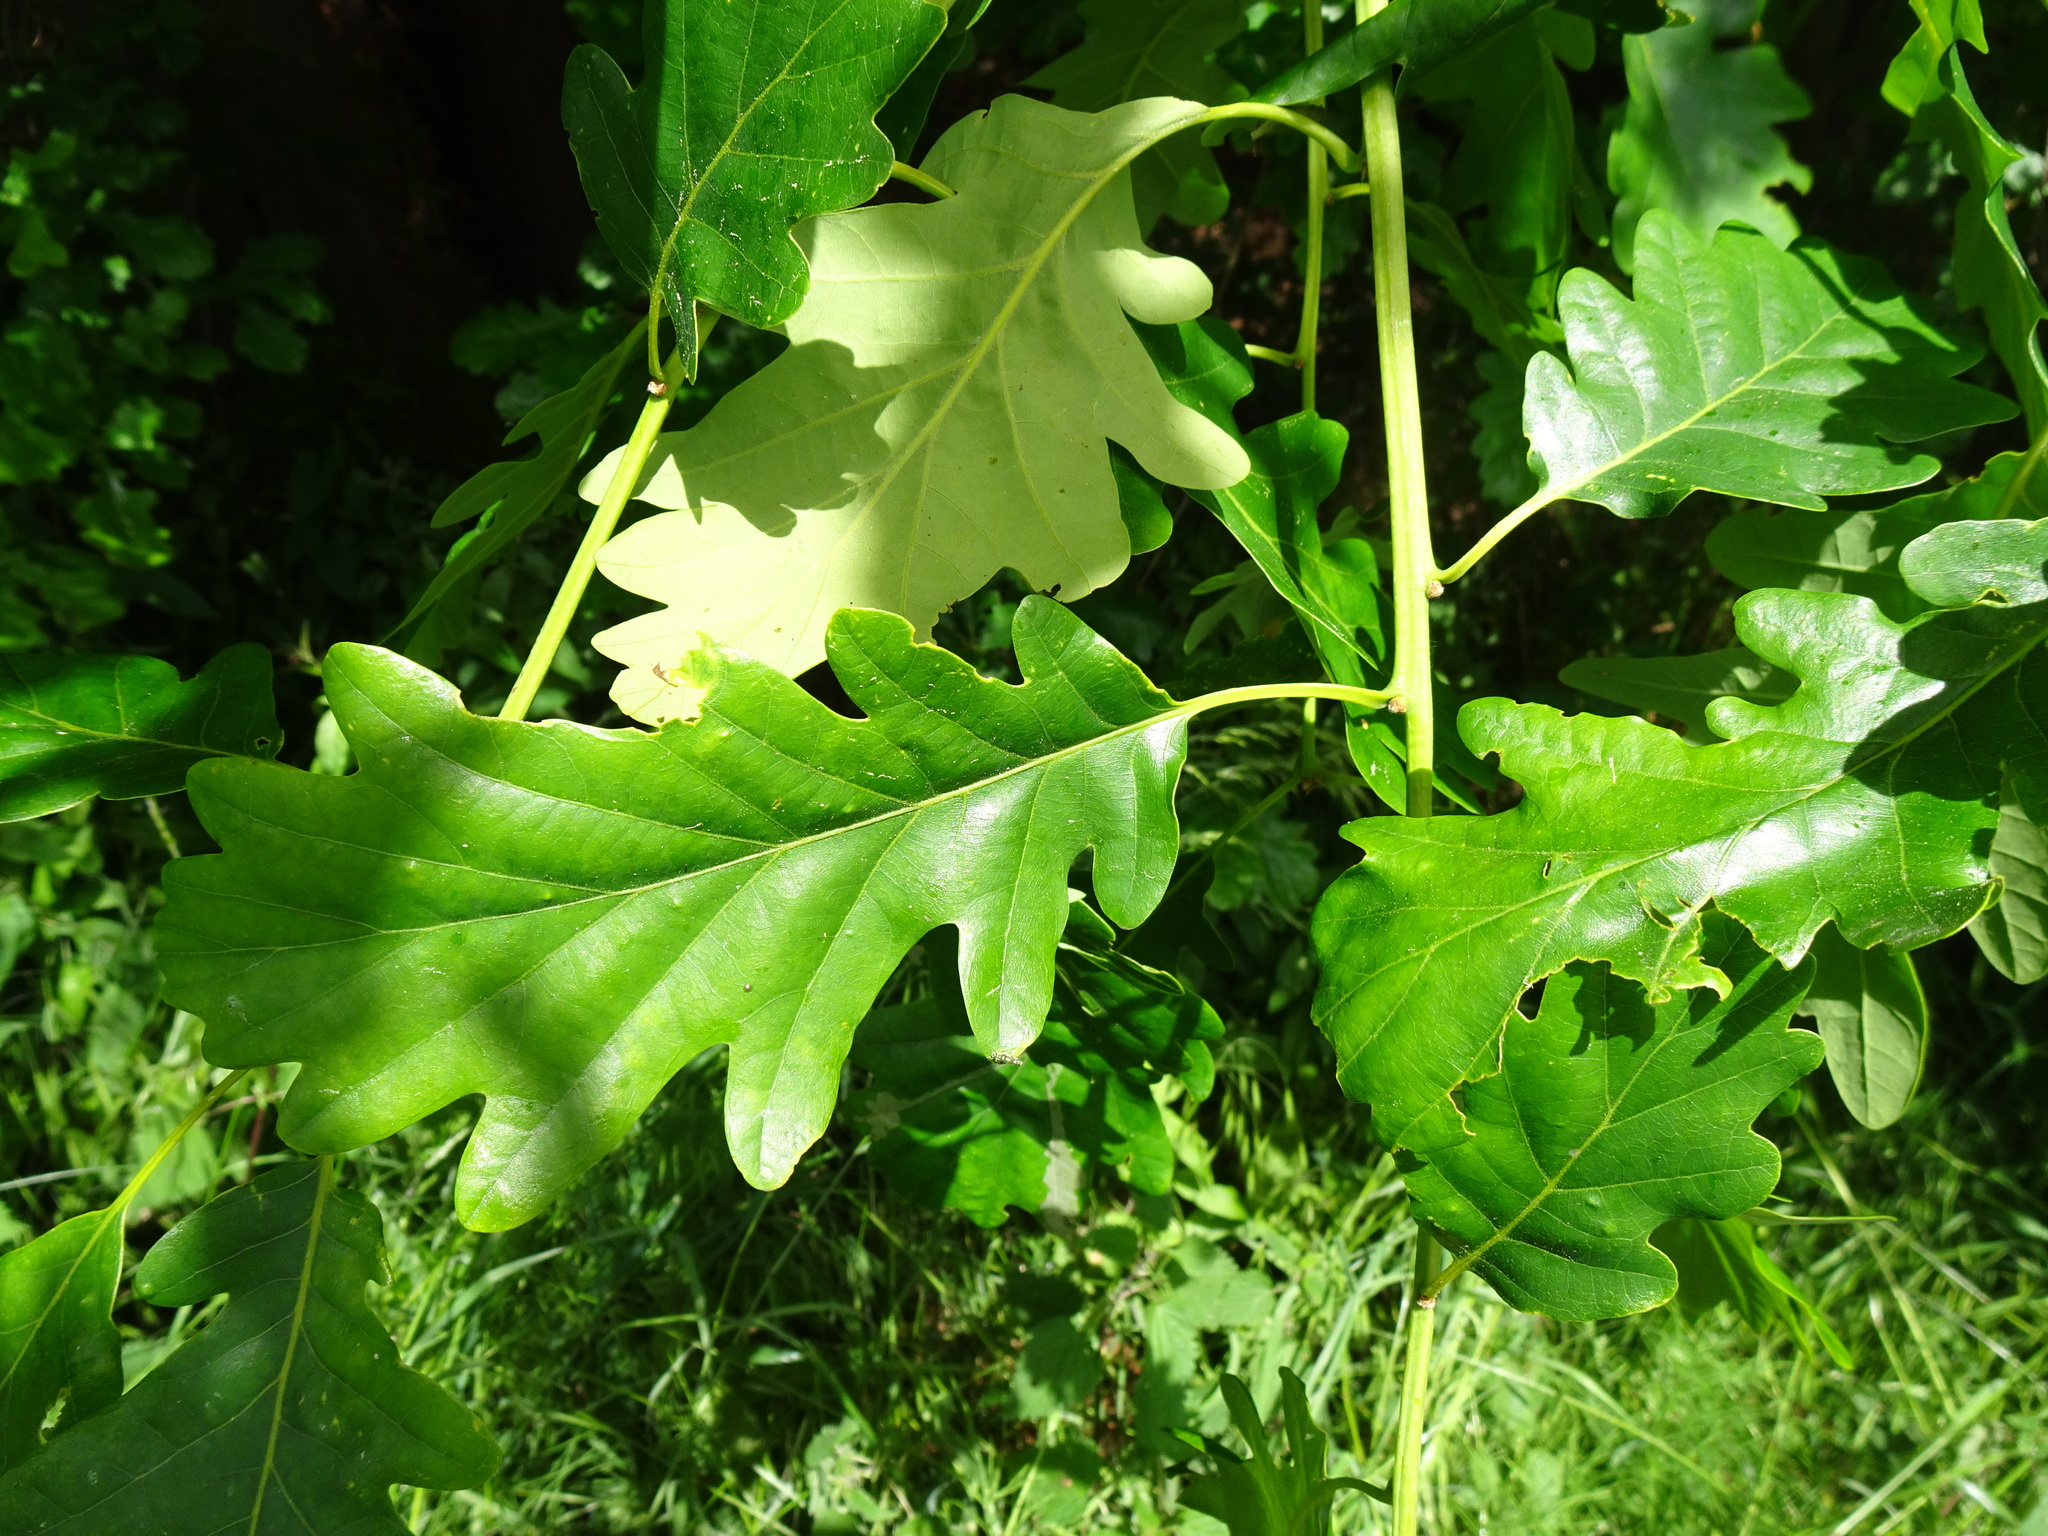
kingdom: Plantae
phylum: Tracheophyta
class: Magnoliopsida
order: Fagales
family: Fagaceae
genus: Quercus
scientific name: Quercus petraea
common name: Sessile oak
